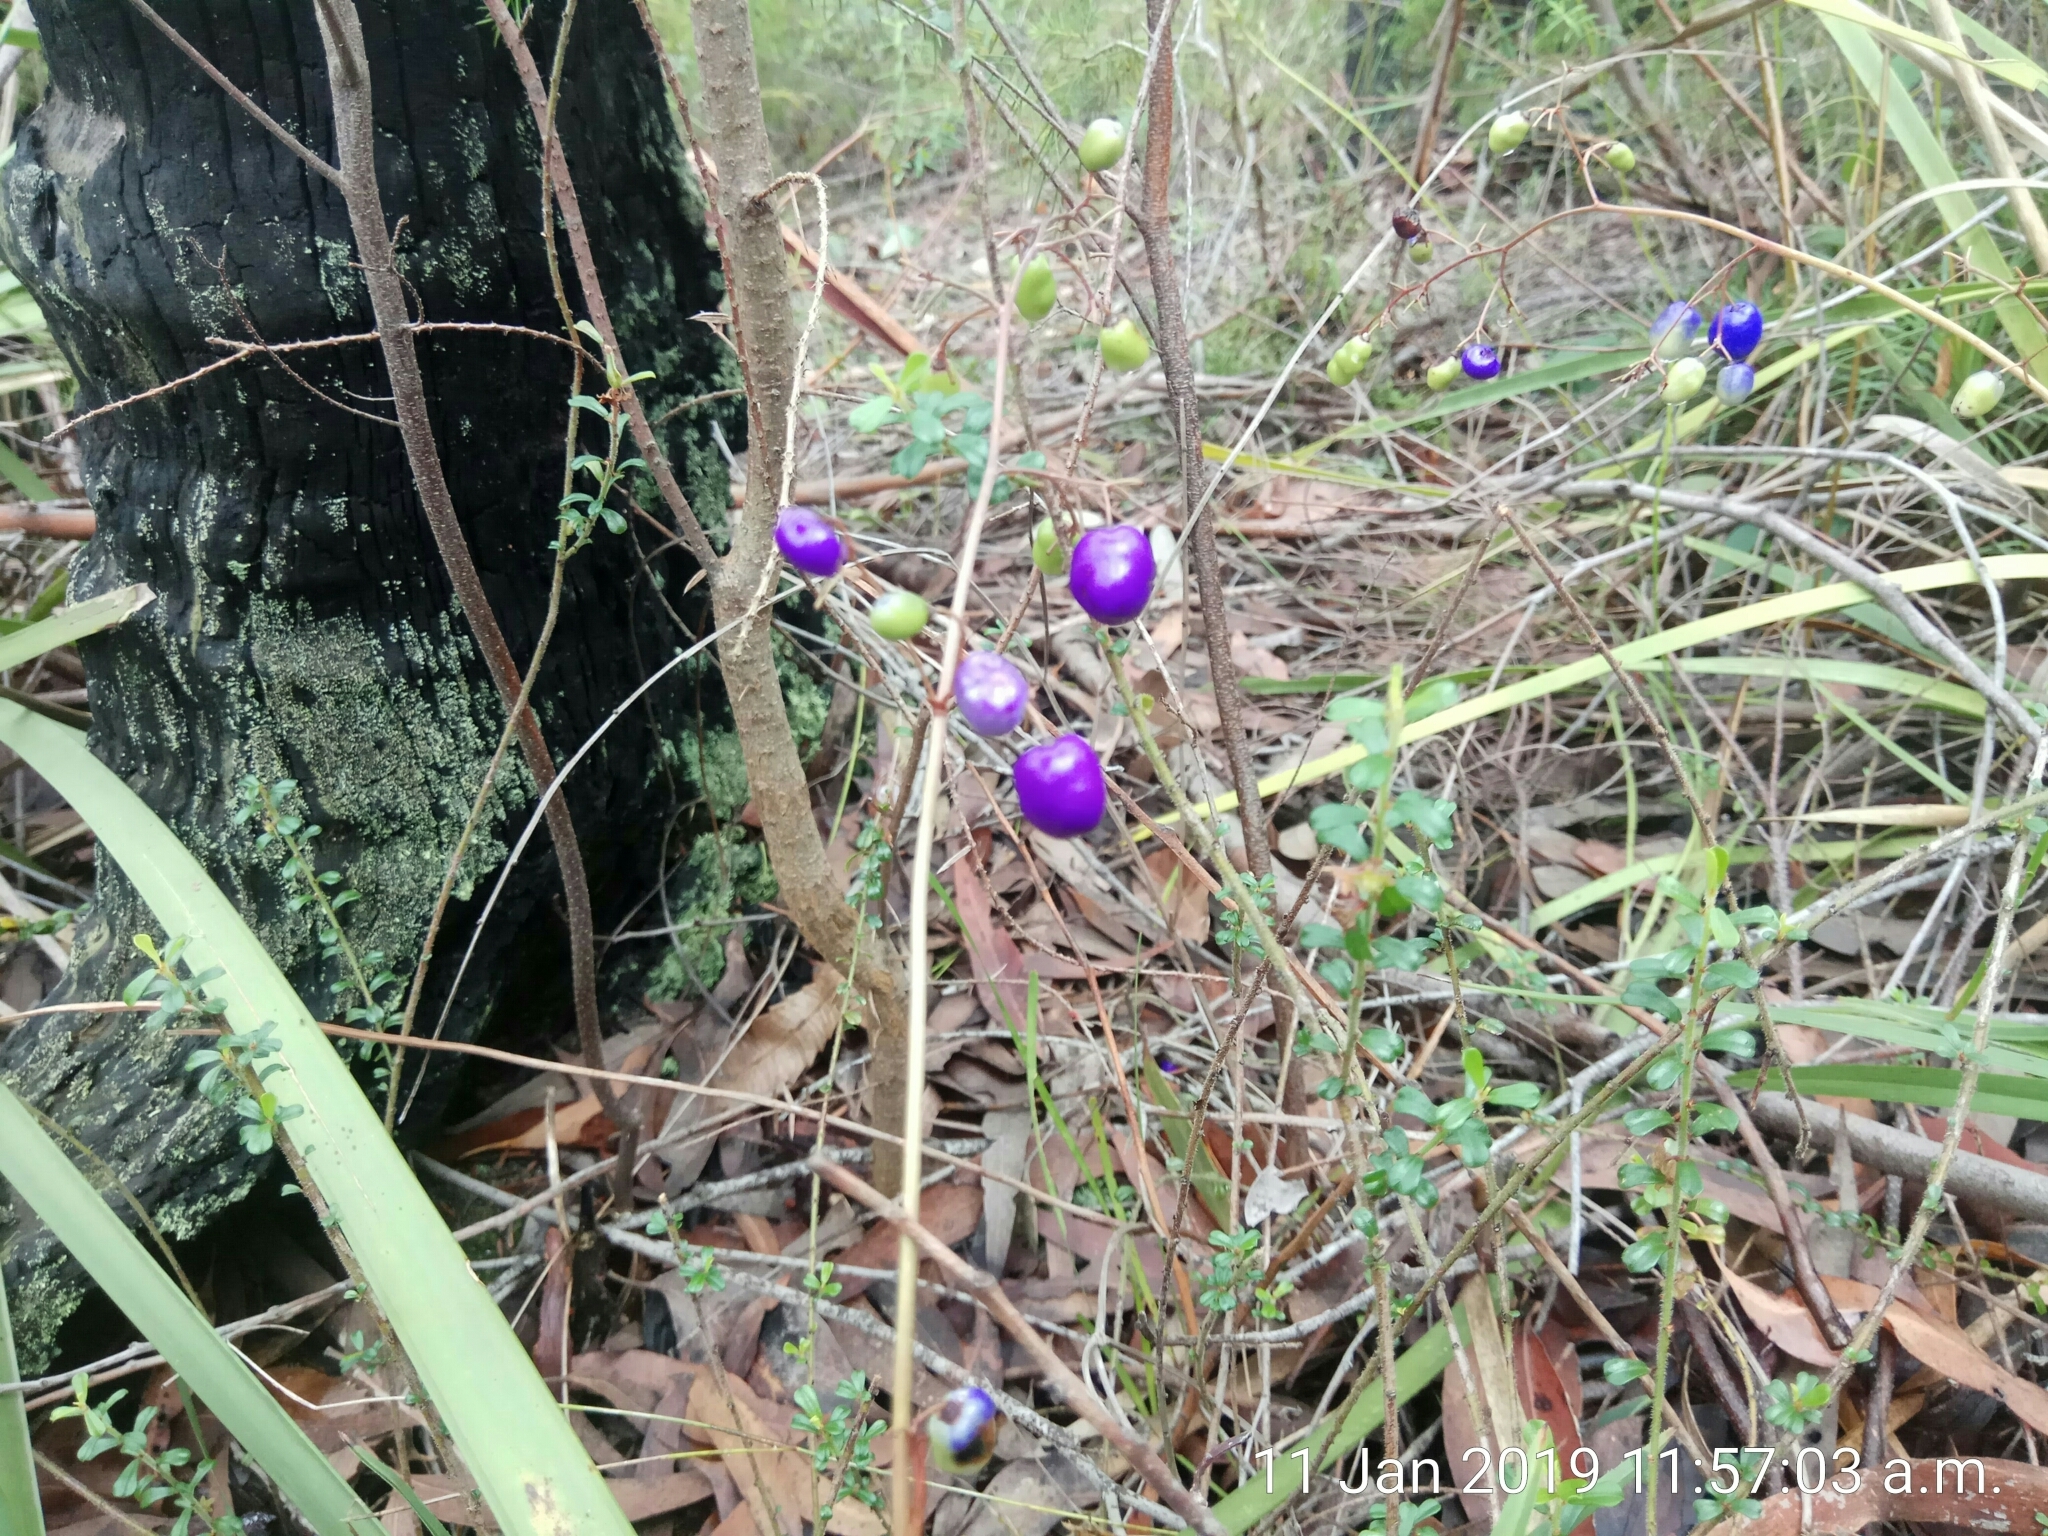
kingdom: Plantae
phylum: Tracheophyta
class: Liliopsida
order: Asparagales
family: Asphodelaceae
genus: Dianella
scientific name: Dianella caerulea
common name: Blue flax-lily
